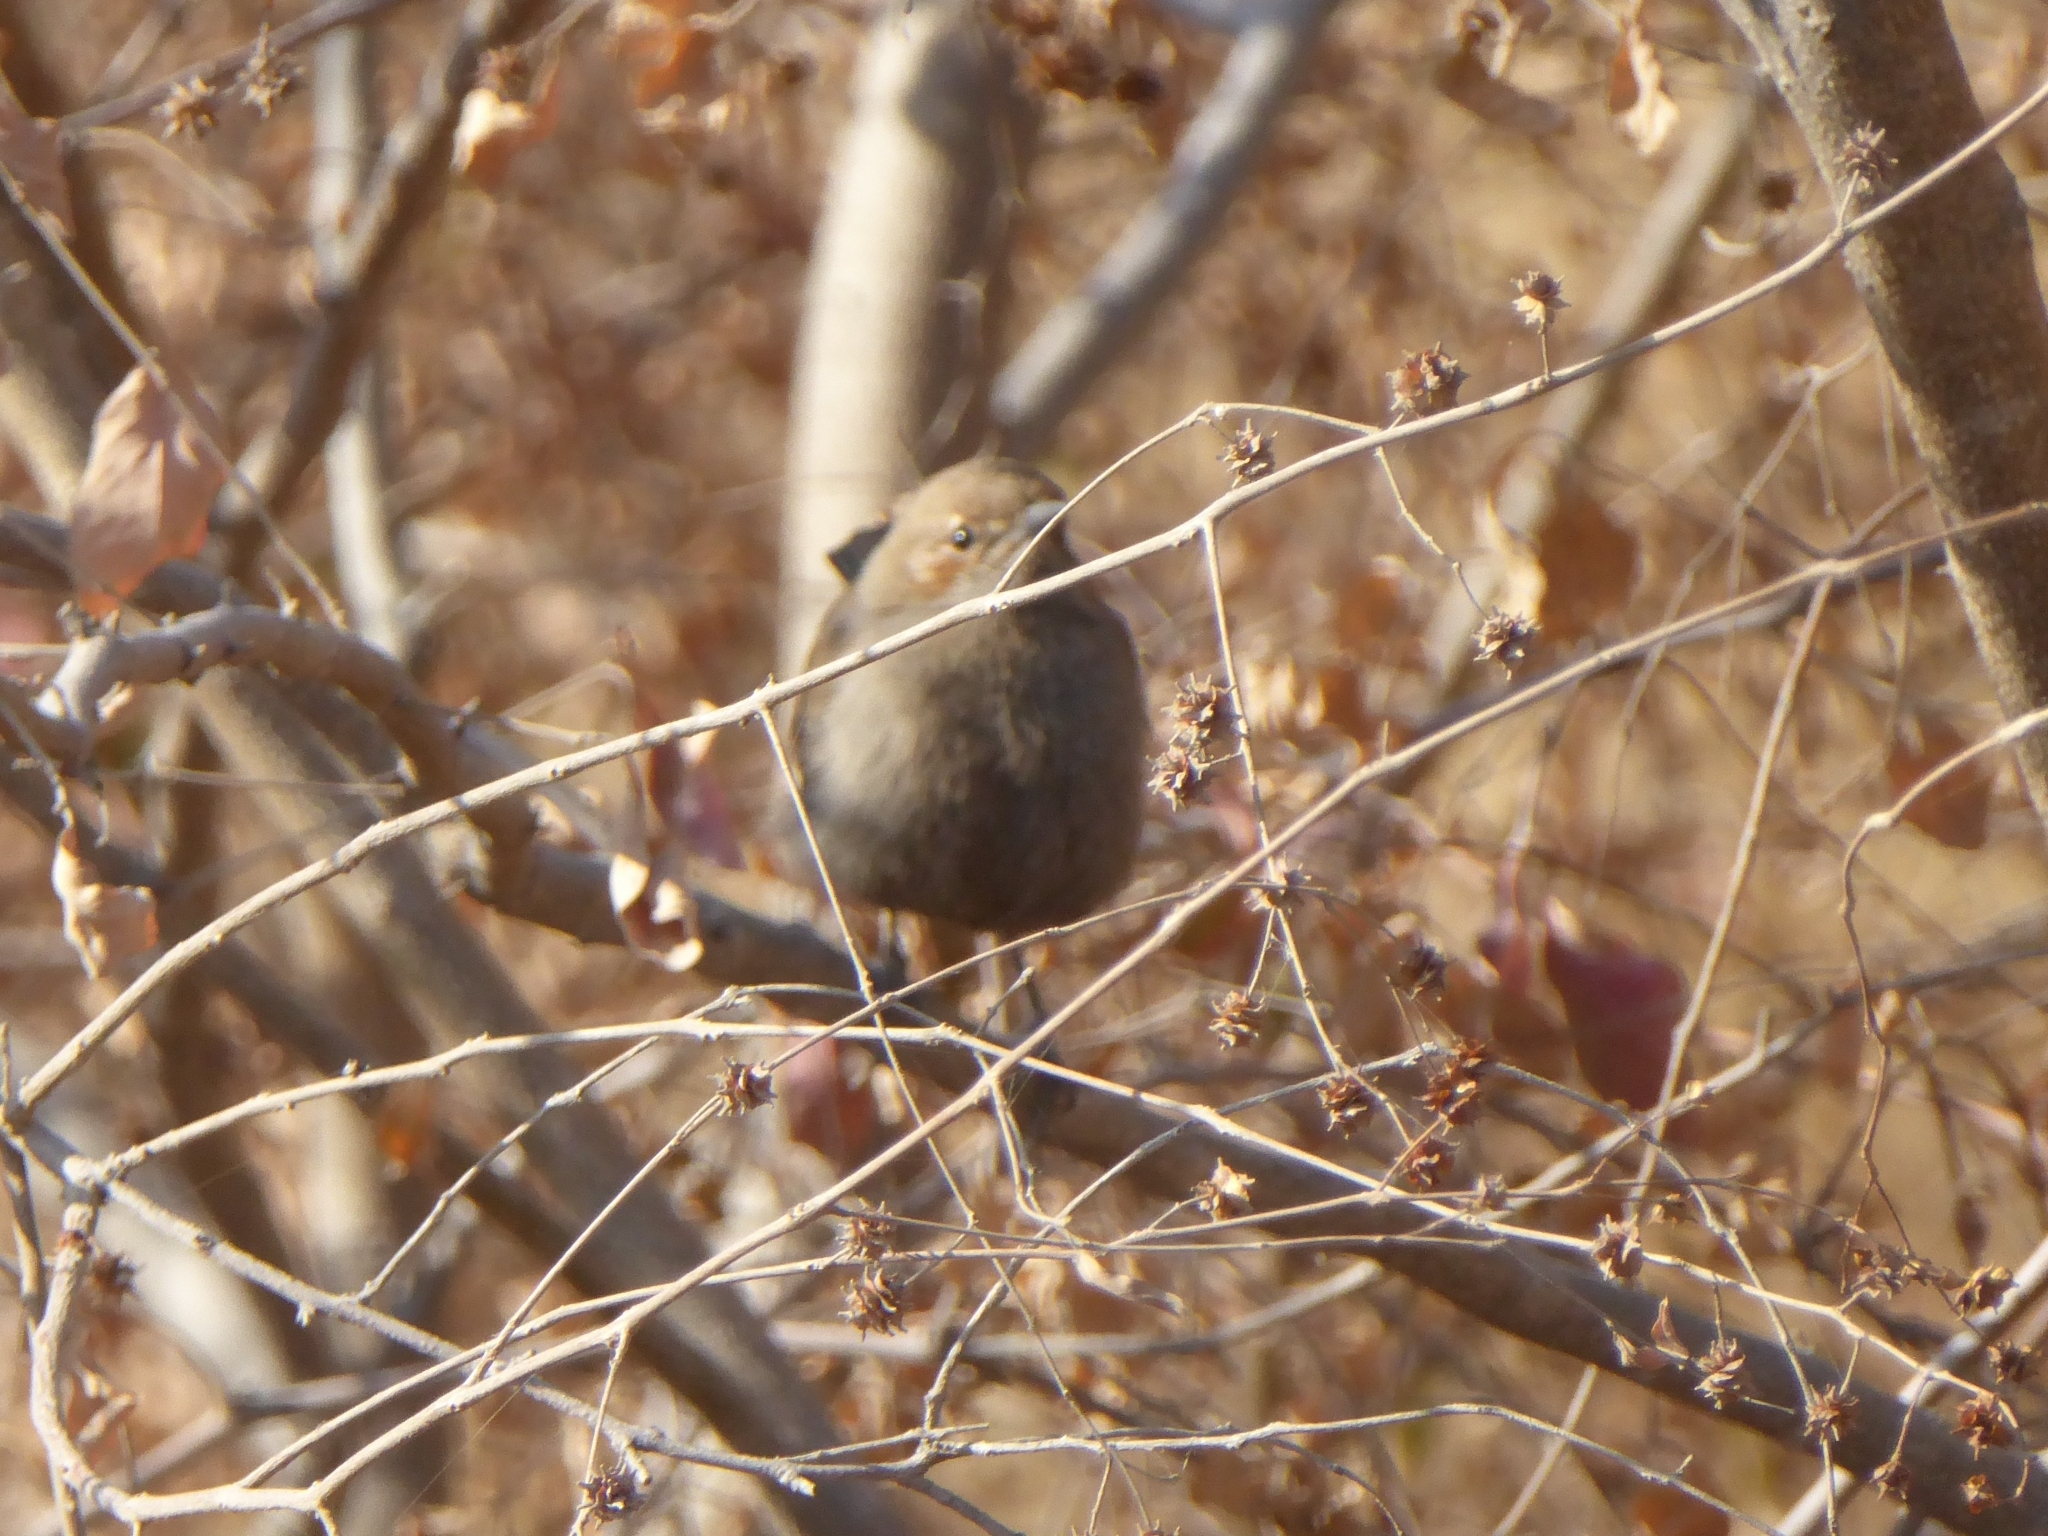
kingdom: Animalia
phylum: Chordata
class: Aves
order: Passeriformes
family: Muscicapidae
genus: Saxicoloides
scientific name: Saxicoloides fulicatus
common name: Indian robin
